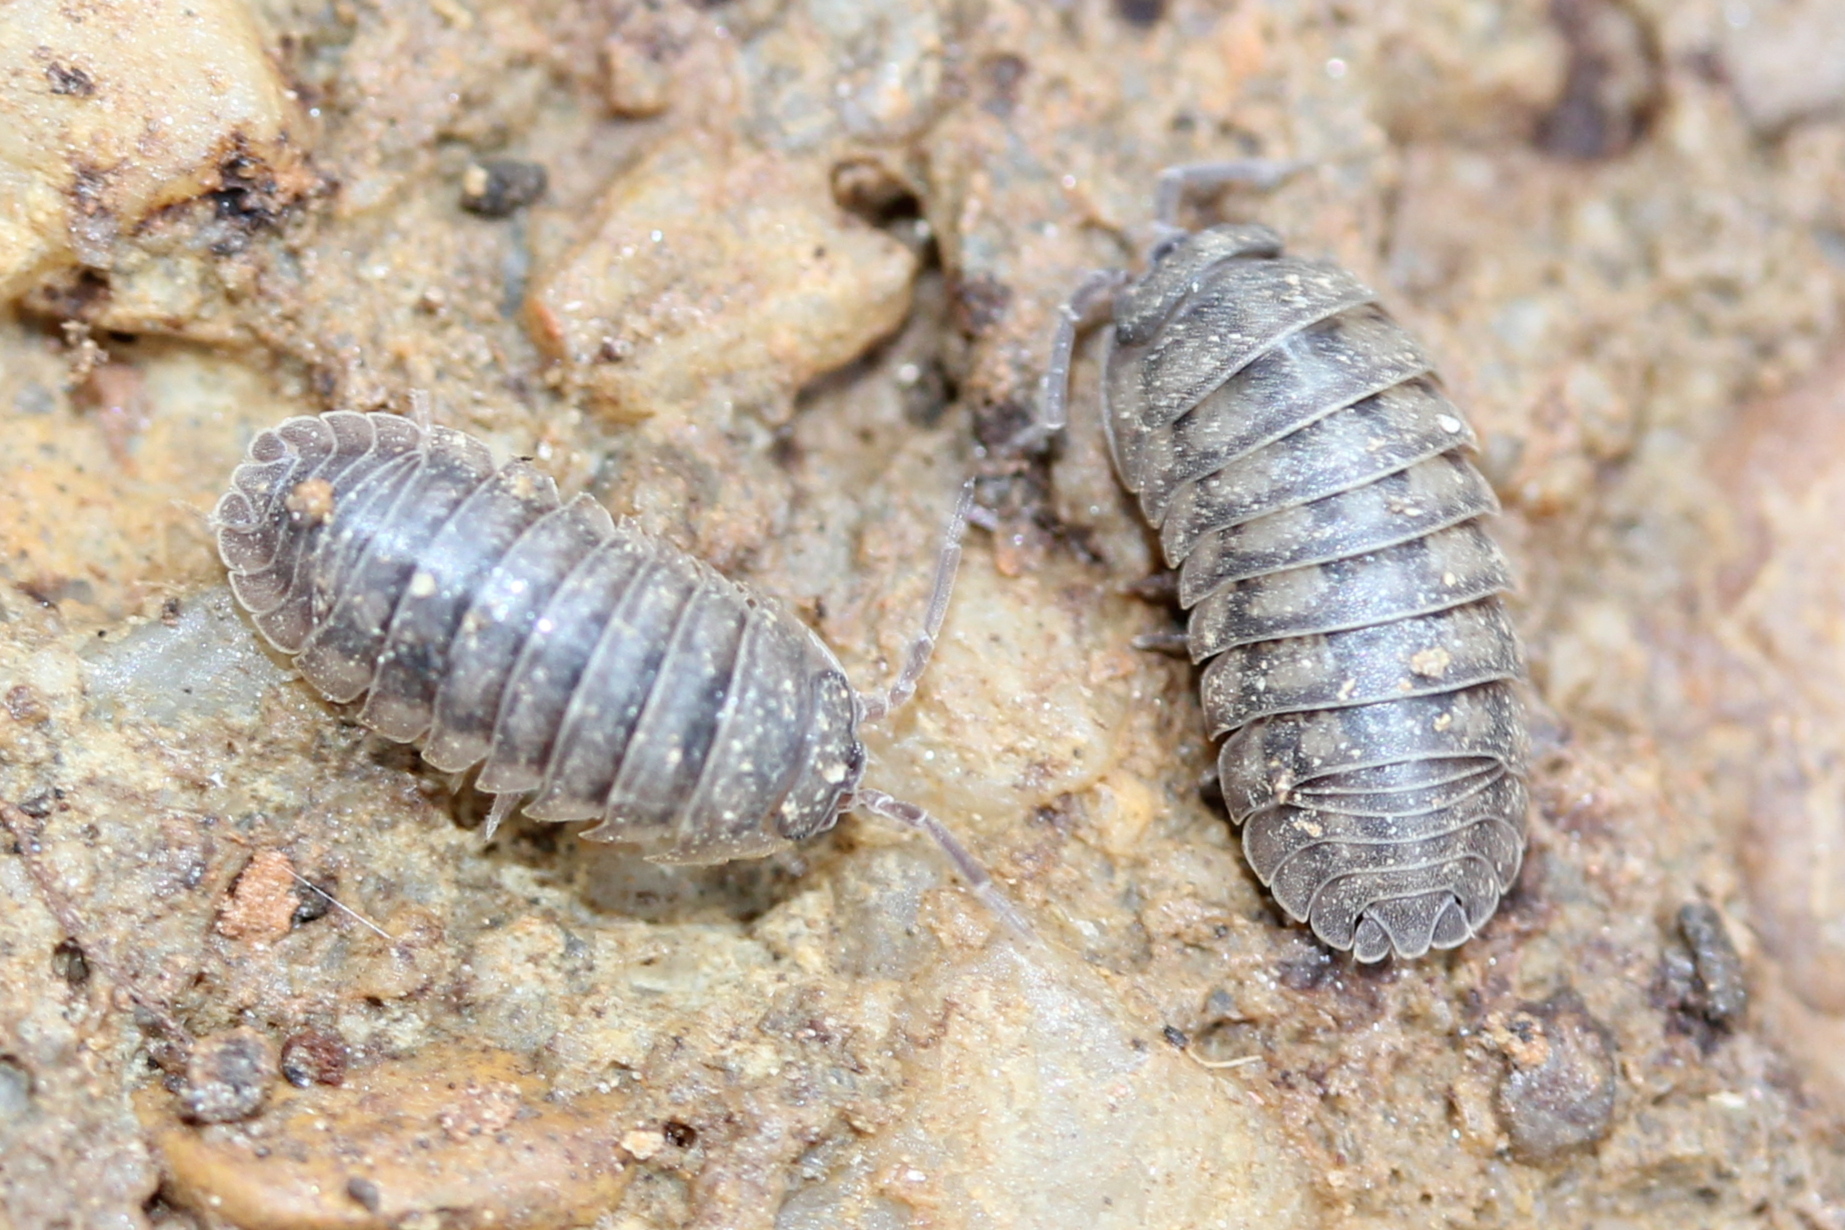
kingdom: Animalia
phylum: Arthropoda
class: Malacostraca
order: Isopoda
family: Armadillidiidae
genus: Armadillidium
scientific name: Armadillidium nasatum
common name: Isopod
